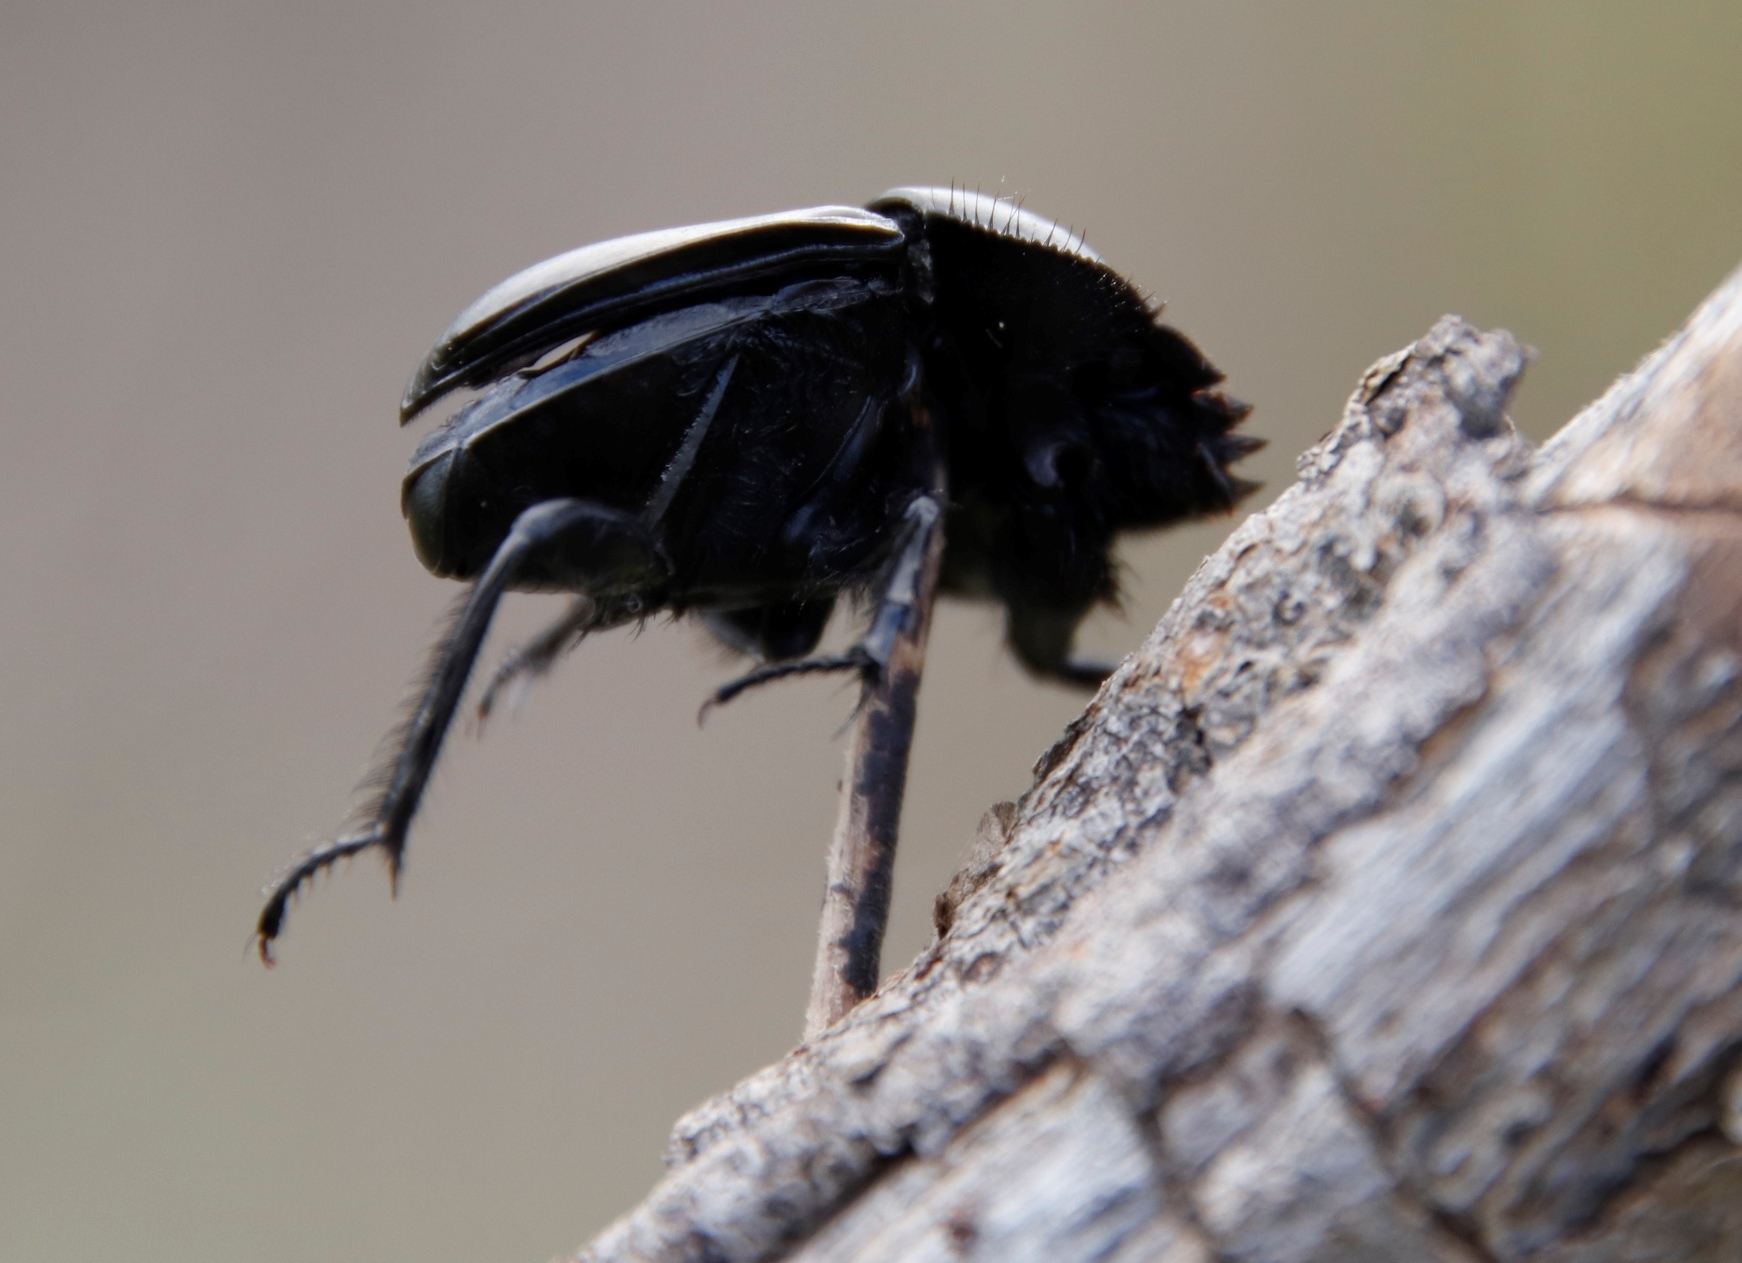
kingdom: Animalia
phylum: Chordata
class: Aves
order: Passeriformes
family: Laniidae
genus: Lanius
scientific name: Lanius collaris
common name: Southern fiscal
